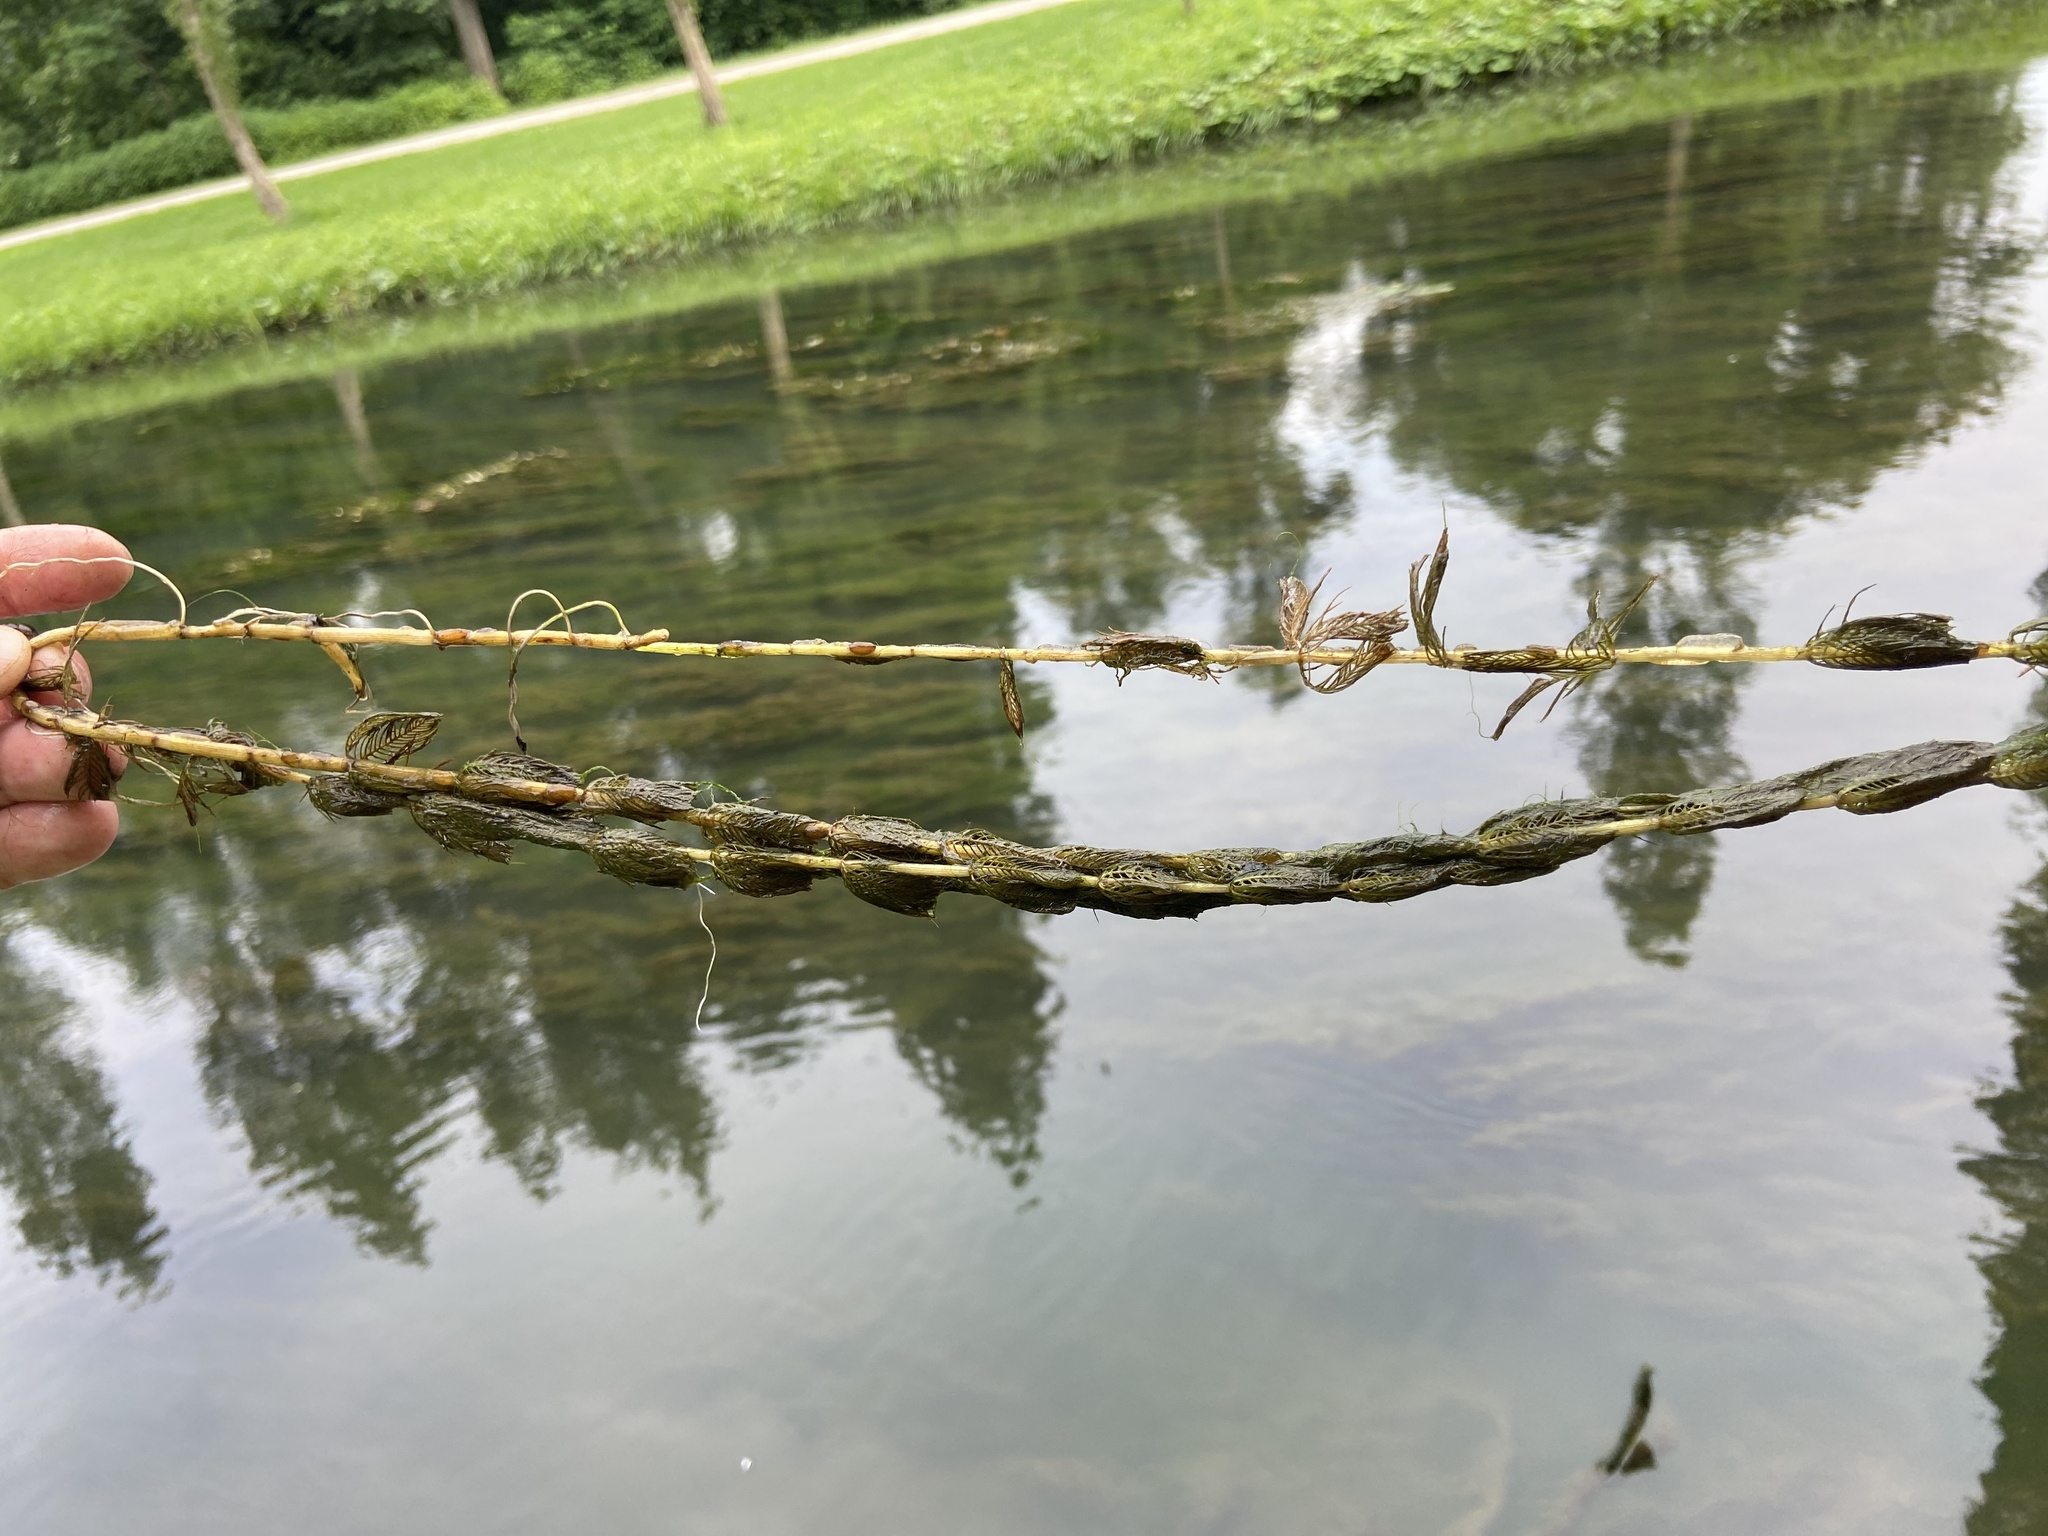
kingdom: Plantae
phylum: Tracheophyta
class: Magnoliopsida
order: Saxifragales
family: Haloragaceae
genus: Myriophyllum
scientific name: Myriophyllum spicatum
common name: Spiked water-milfoil
